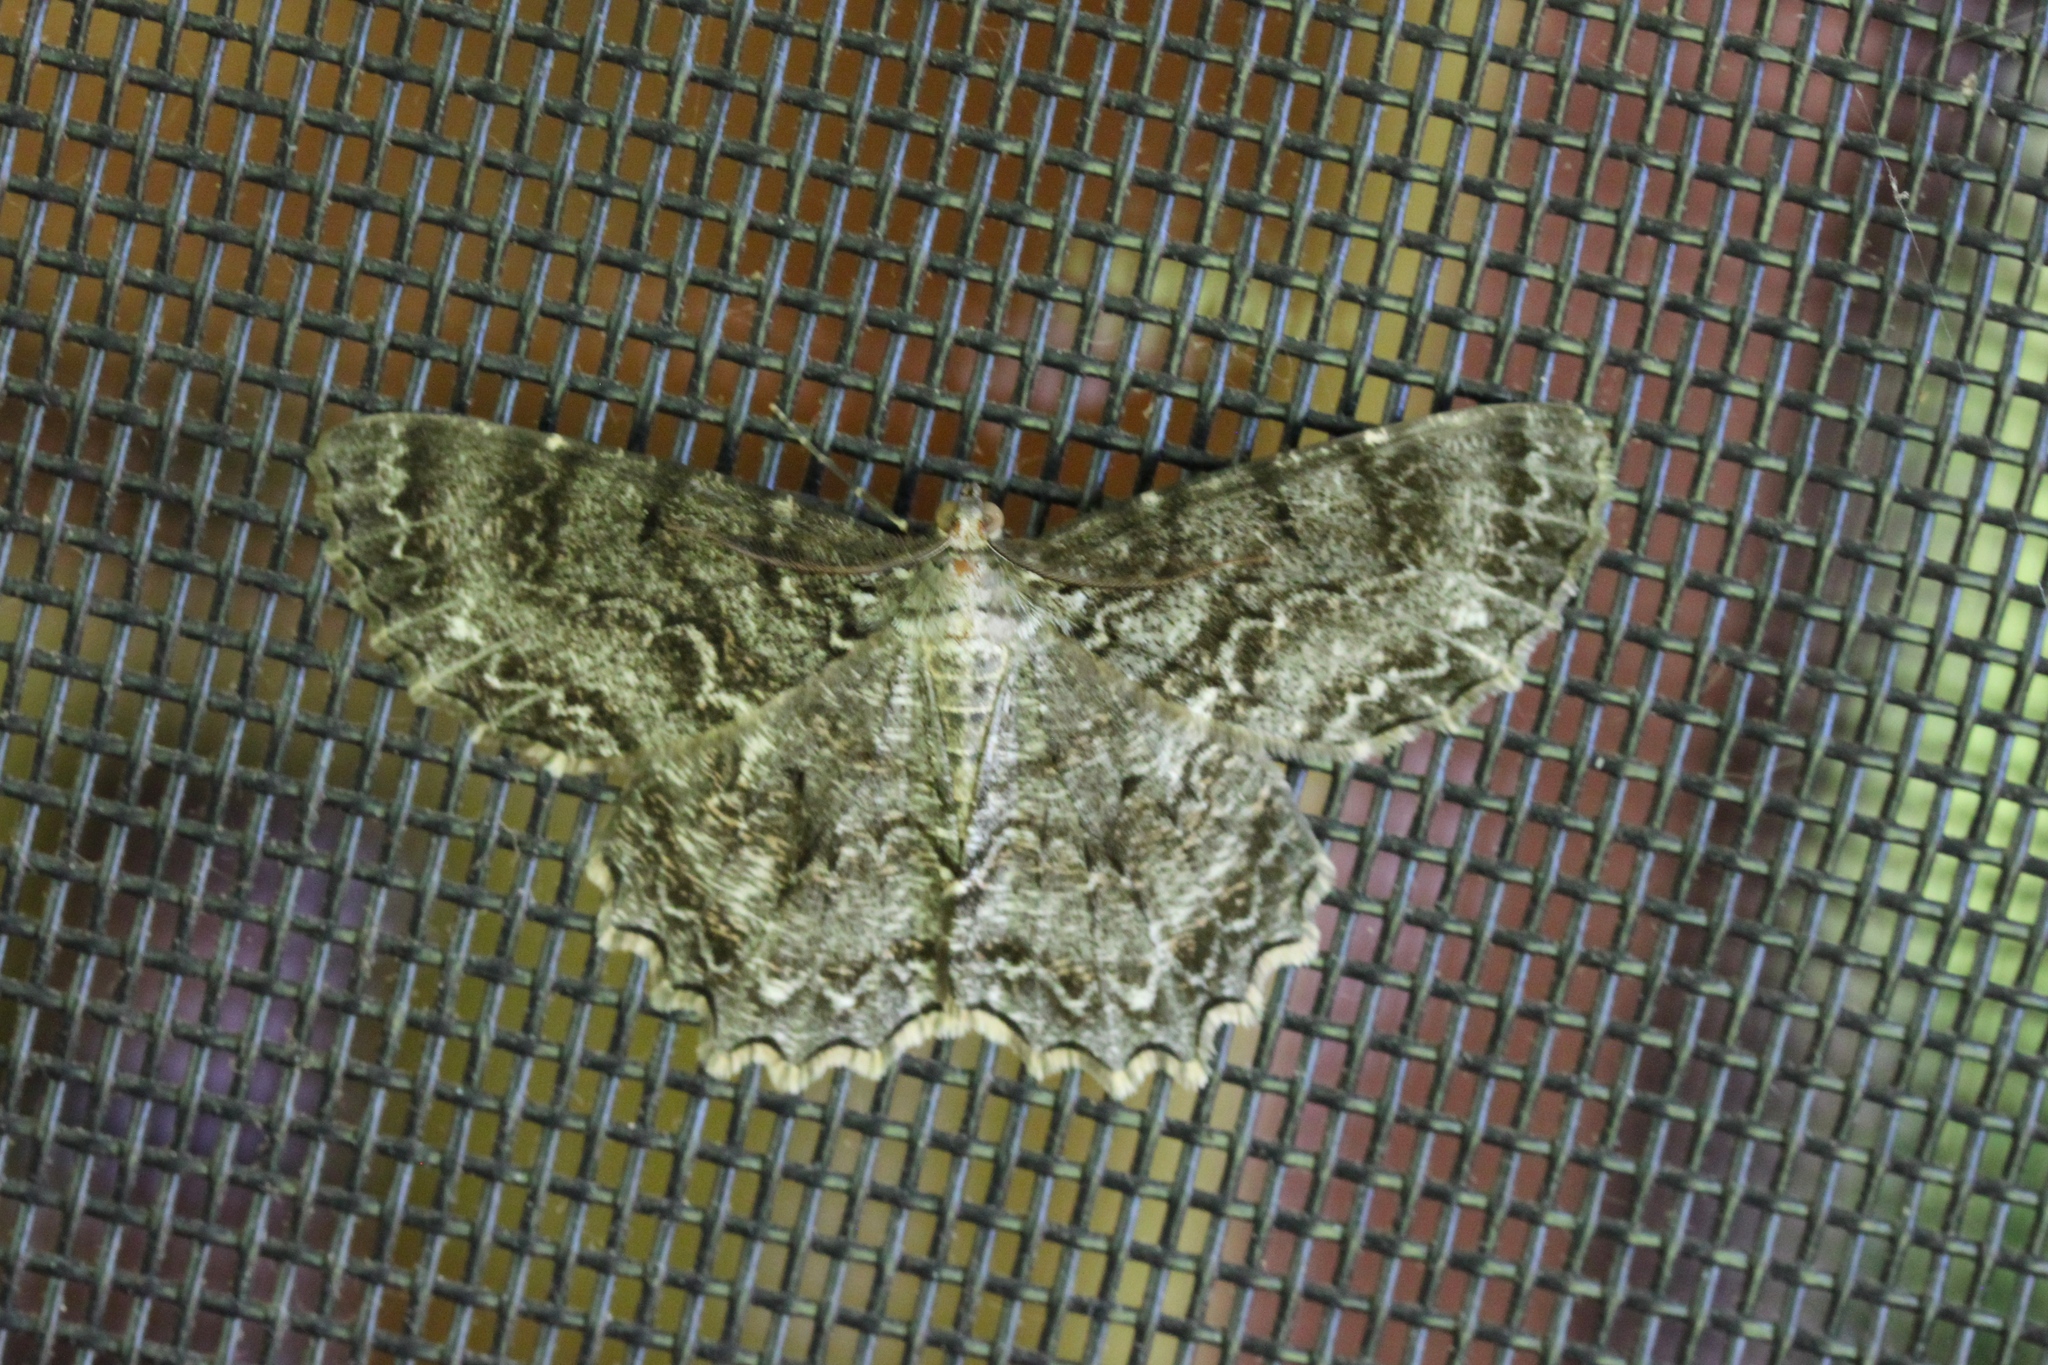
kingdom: Animalia
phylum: Arthropoda
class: Insecta
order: Lepidoptera
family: Geometridae
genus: Epimecis
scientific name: Epimecis hortaria
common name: Tulip-tree beauty
